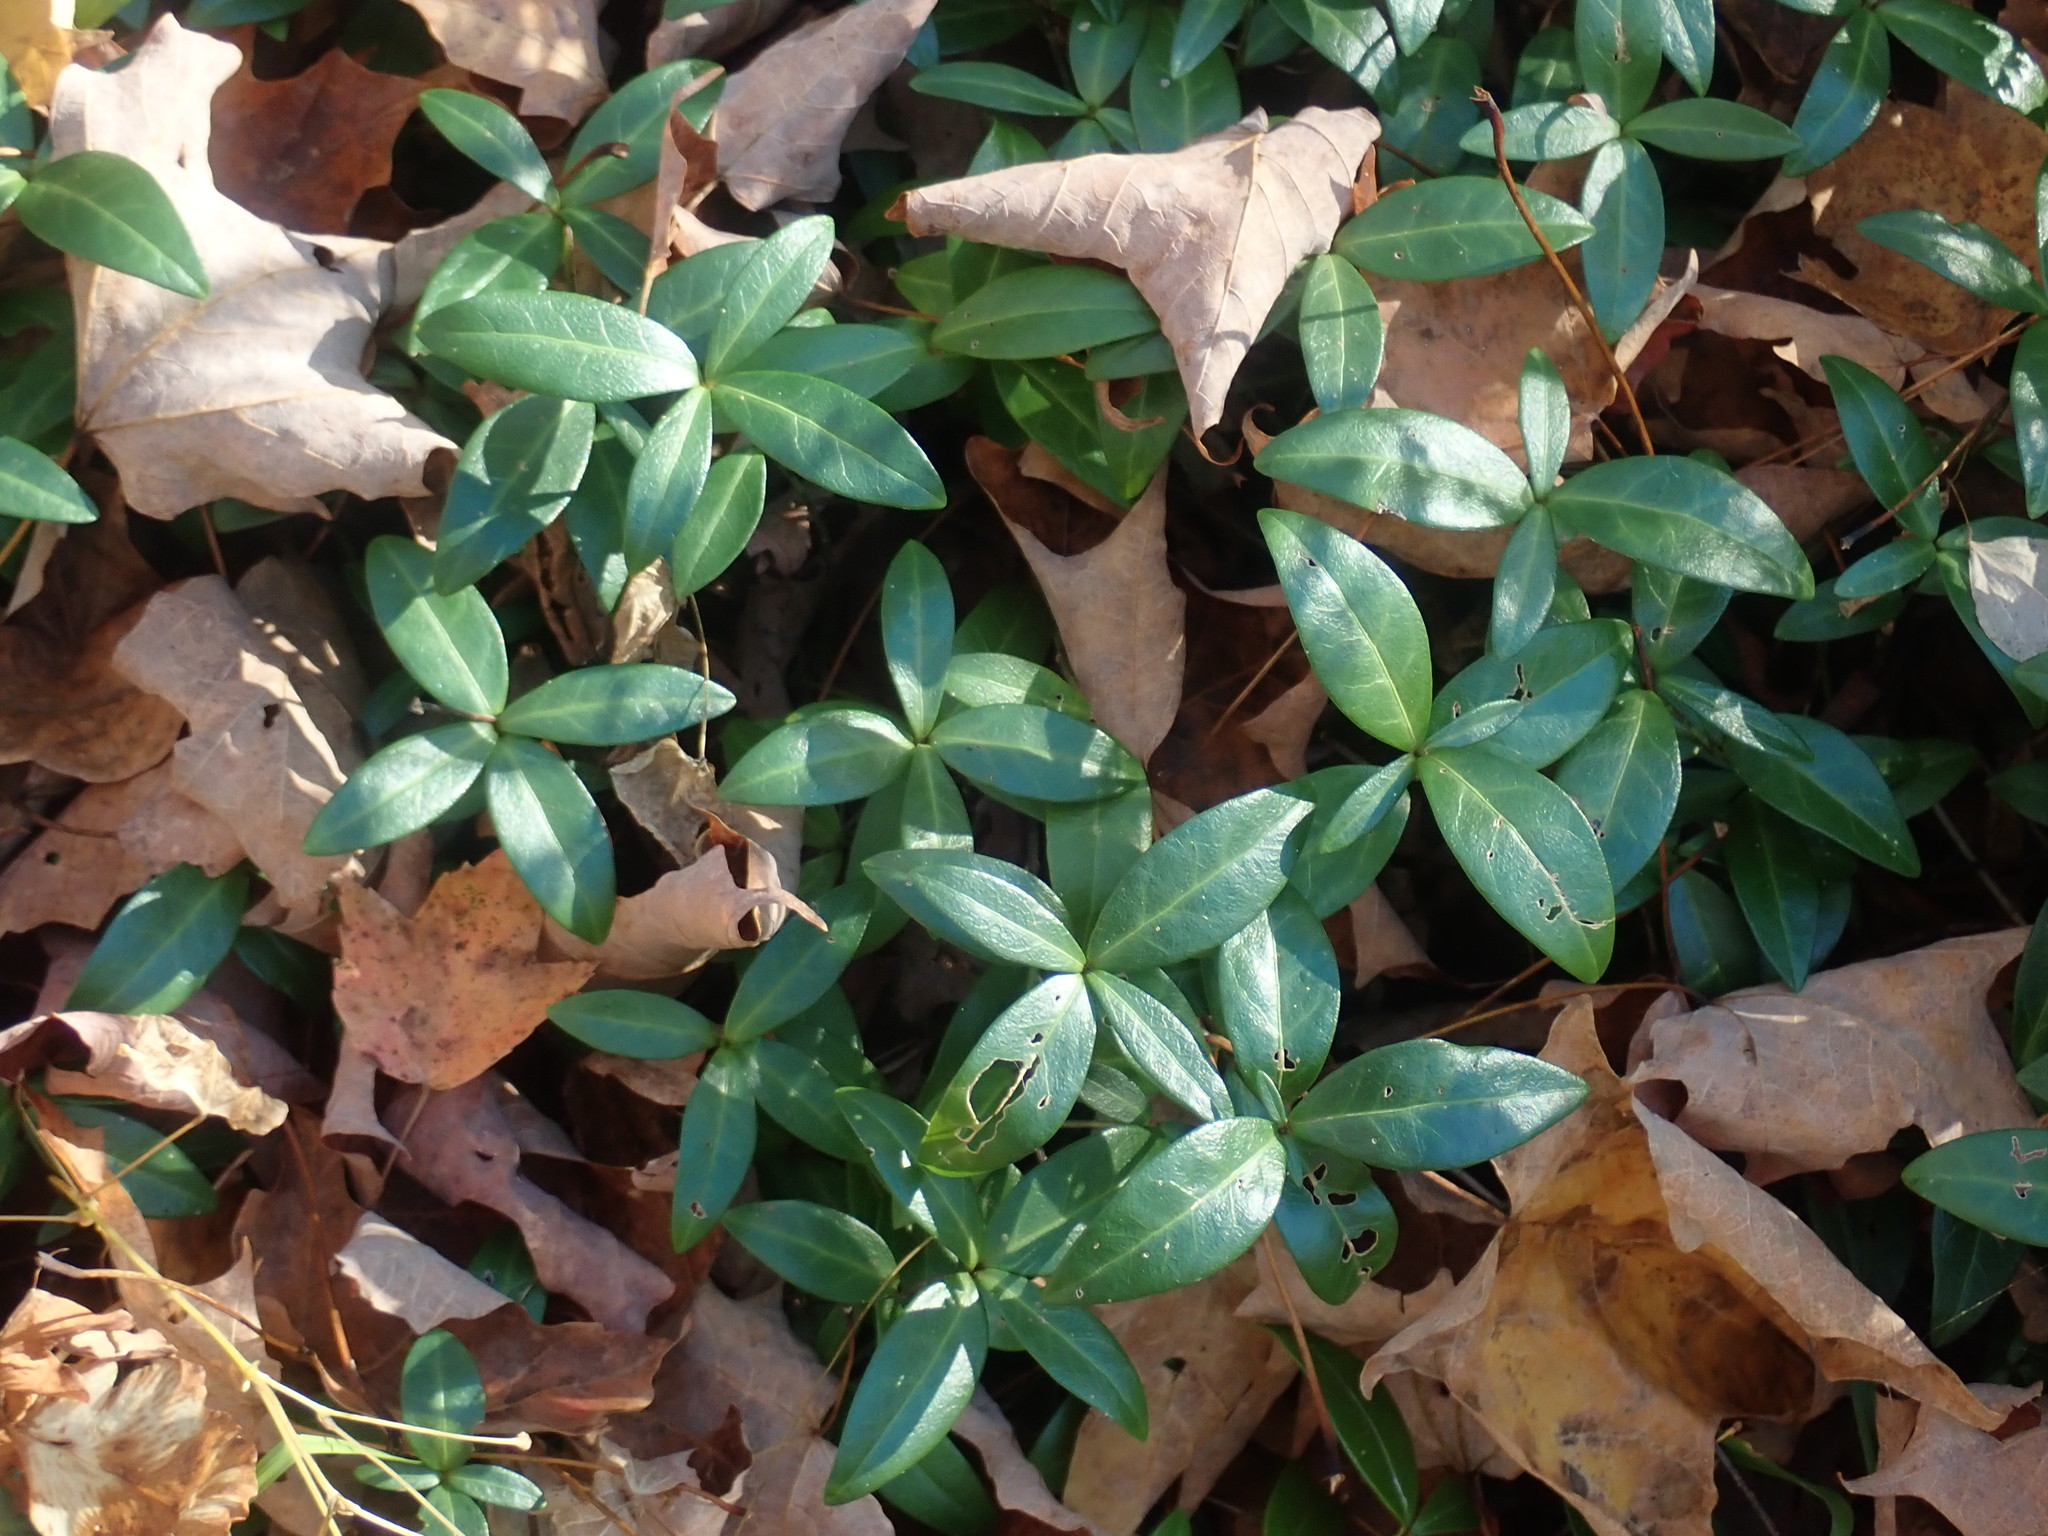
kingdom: Plantae
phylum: Tracheophyta
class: Magnoliopsida
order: Gentianales
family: Apocynaceae
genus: Vinca
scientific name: Vinca minor
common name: Lesser periwinkle
